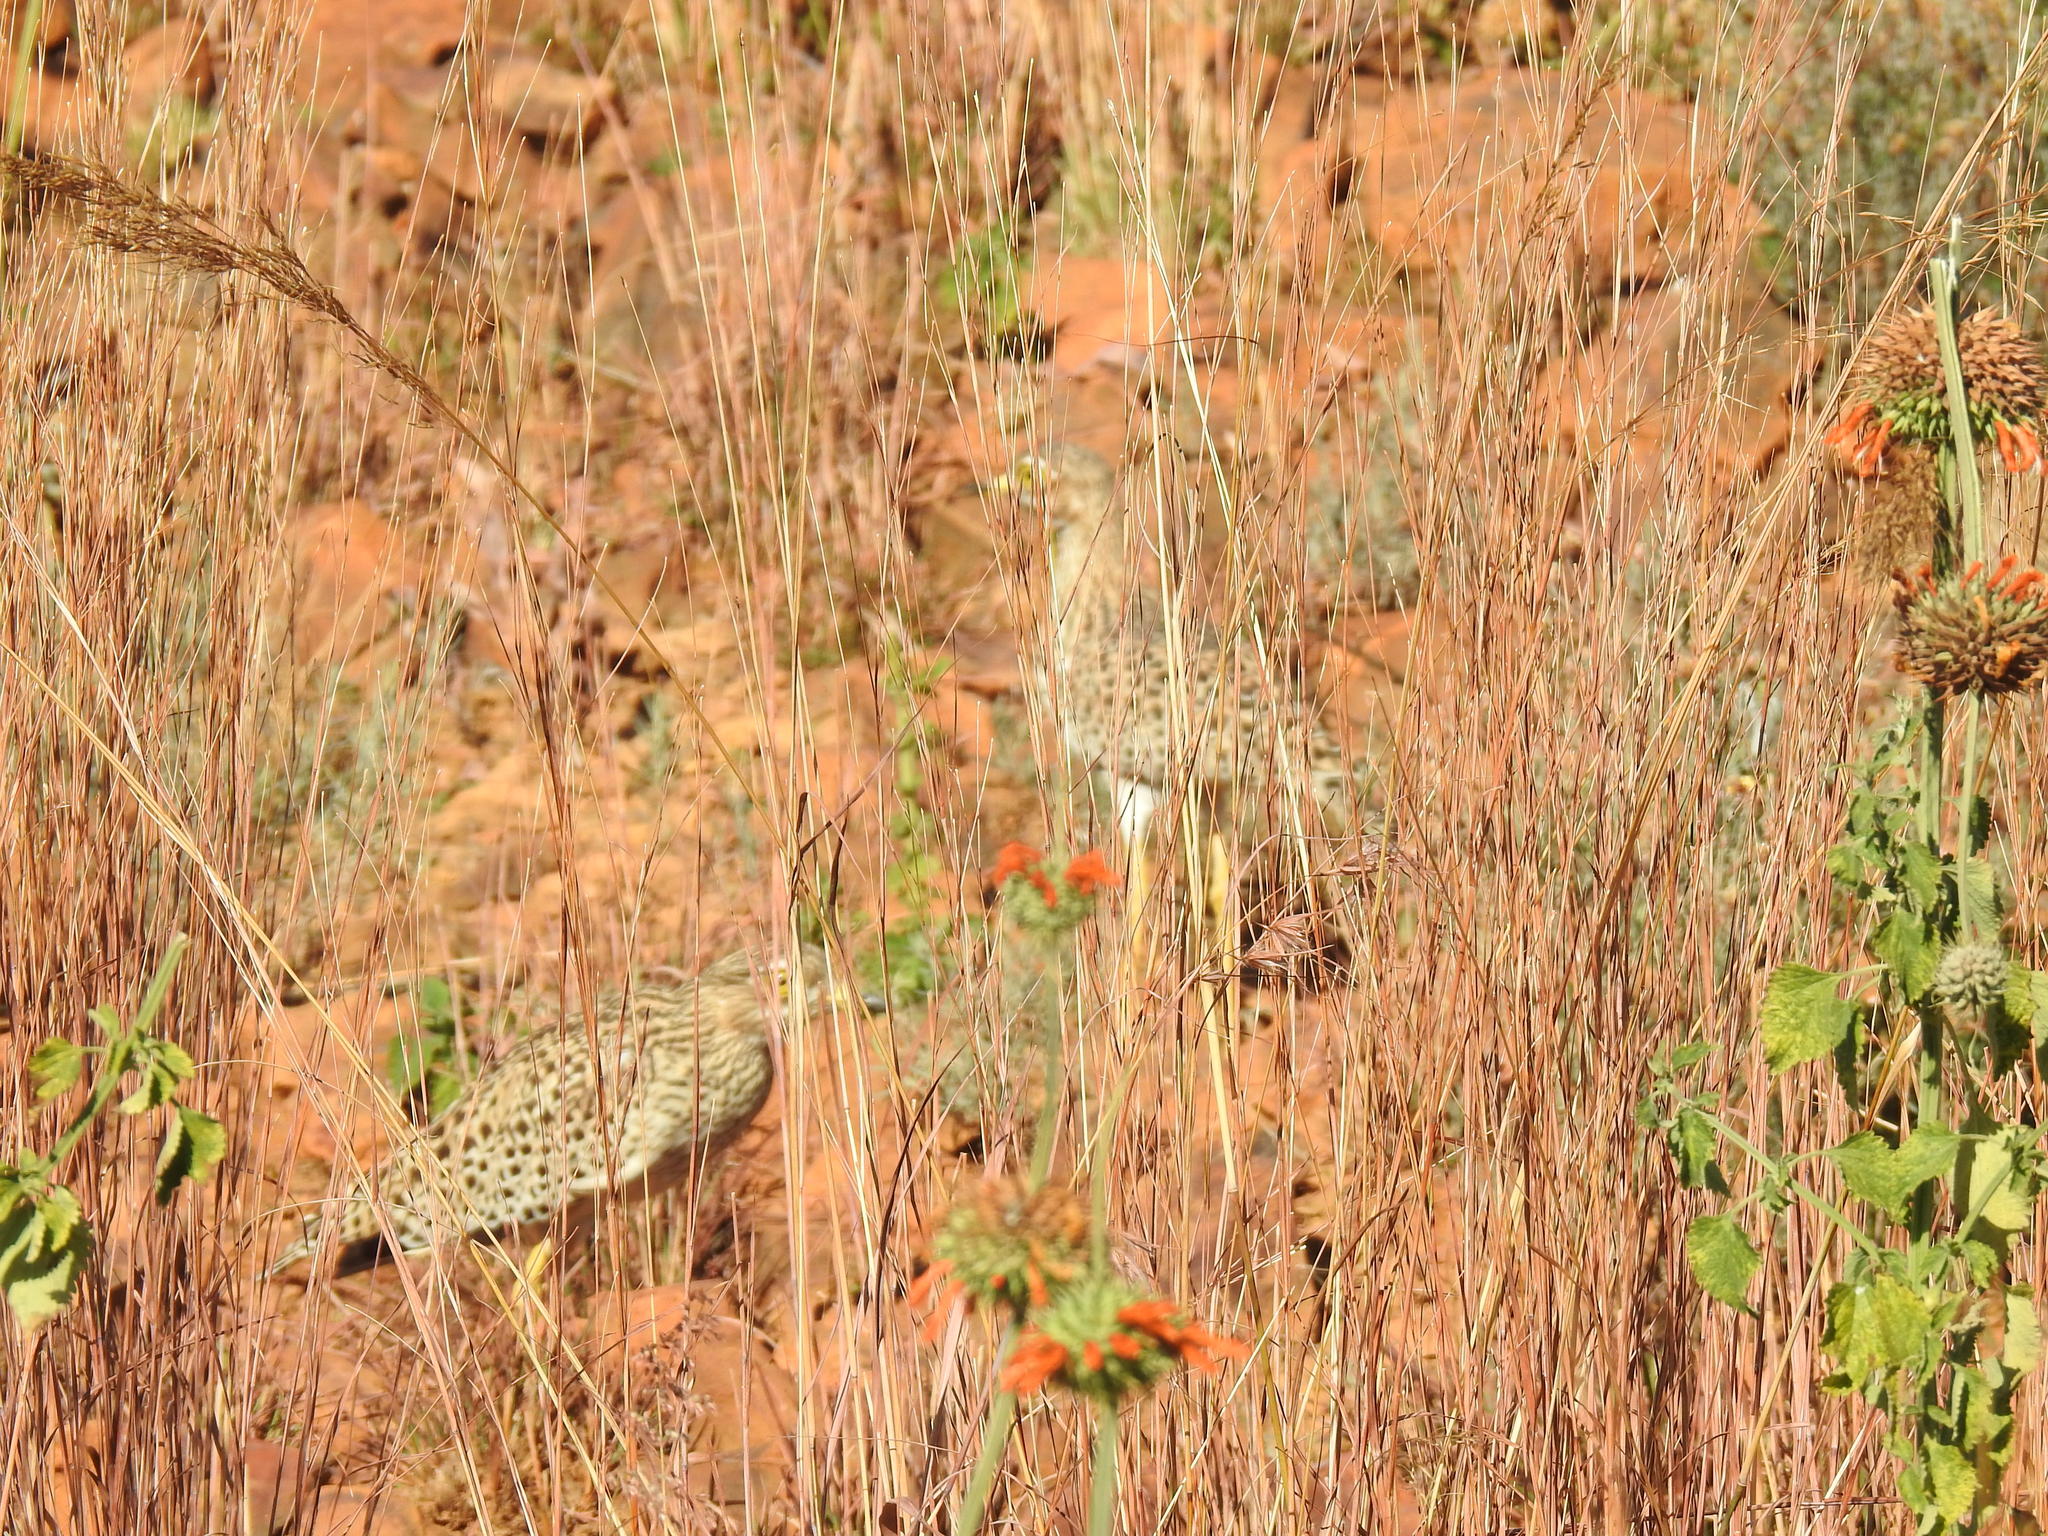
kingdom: Animalia
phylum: Chordata
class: Aves
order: Charadriiformes
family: Burhinidae
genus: Burhinus
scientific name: Burhinus capensis
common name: Spotted thick-knee
